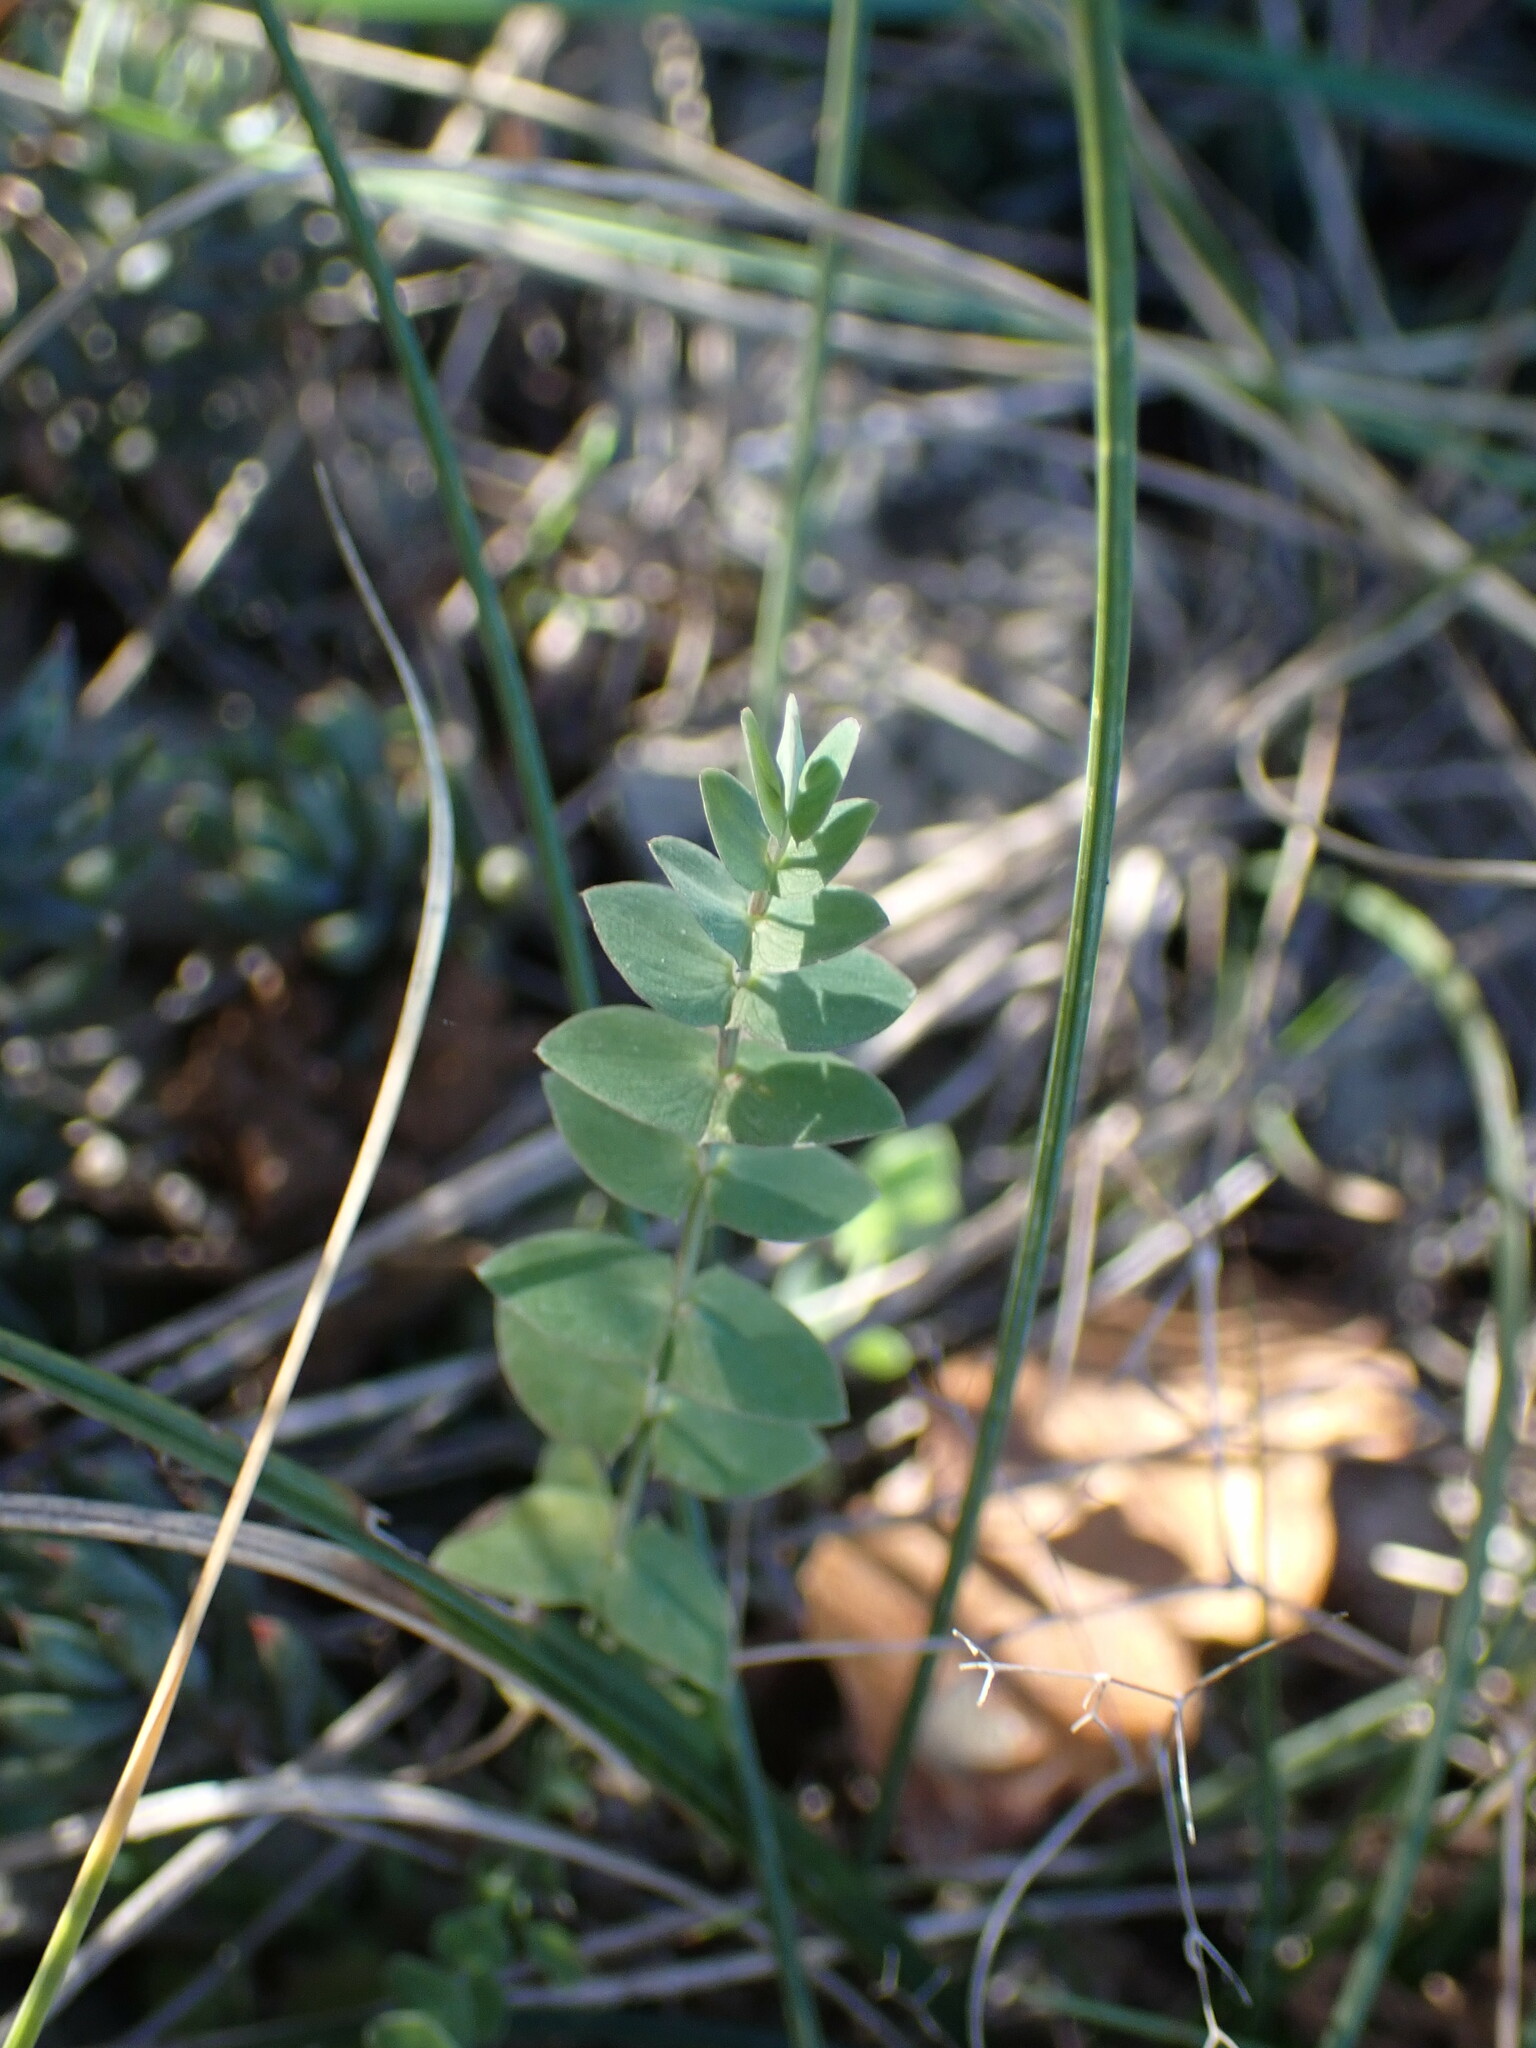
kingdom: Plantae
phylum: Tracheophyta
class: Magnoliopsida
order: Fabales
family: Fabaceae
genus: Lathyrus
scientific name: Lathyrus aphaca
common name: Yellow vetchling
